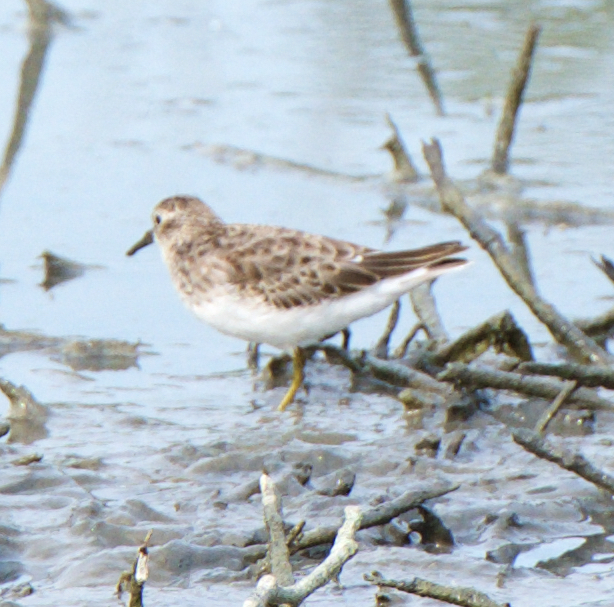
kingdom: Animalia
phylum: Chordata
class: Aves
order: Charadriiformes
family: Scolopacidae
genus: Calidris
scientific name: Calidris minutilla
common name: Least sandpiper
